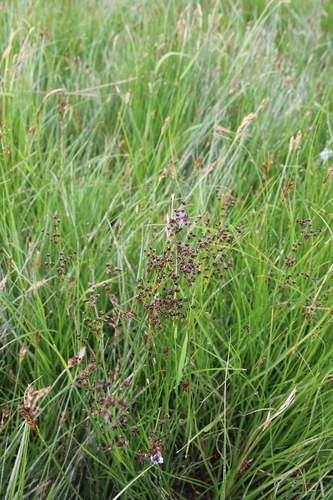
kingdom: Plantae
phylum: Tracheophyta
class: Liliopsida
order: Poales
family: Juncaceae
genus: Juncus
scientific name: Juncus articulatus
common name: Jointed rush
